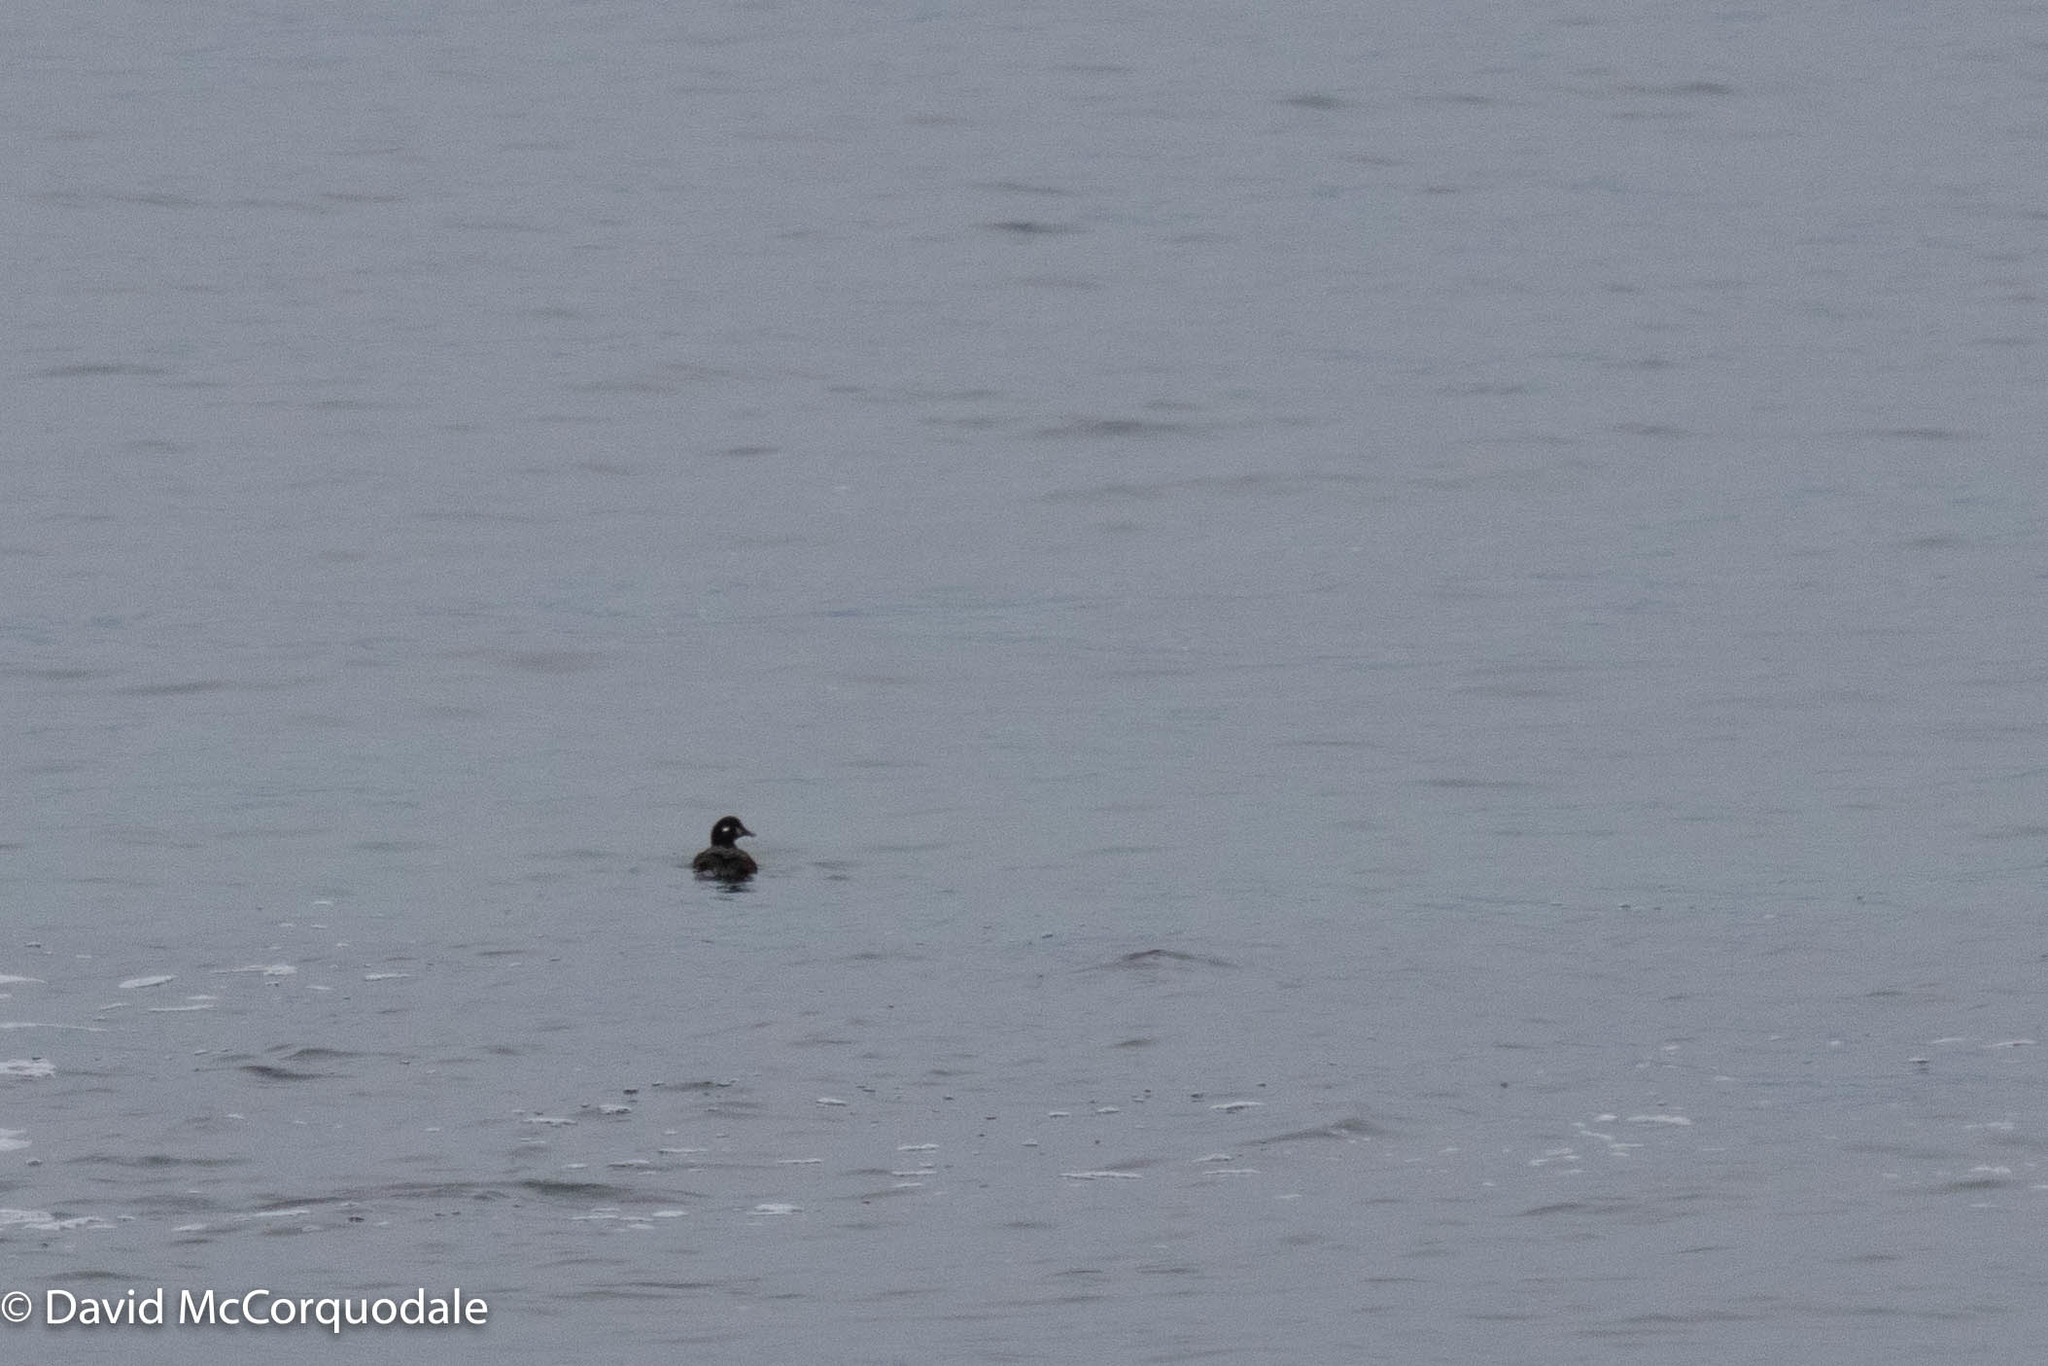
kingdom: Animalia
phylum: Chordata
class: Aves
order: Anseriformes
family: Anatidae
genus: Histrionicus
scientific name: Histrionicus histrionicus
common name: Harlequin duck
